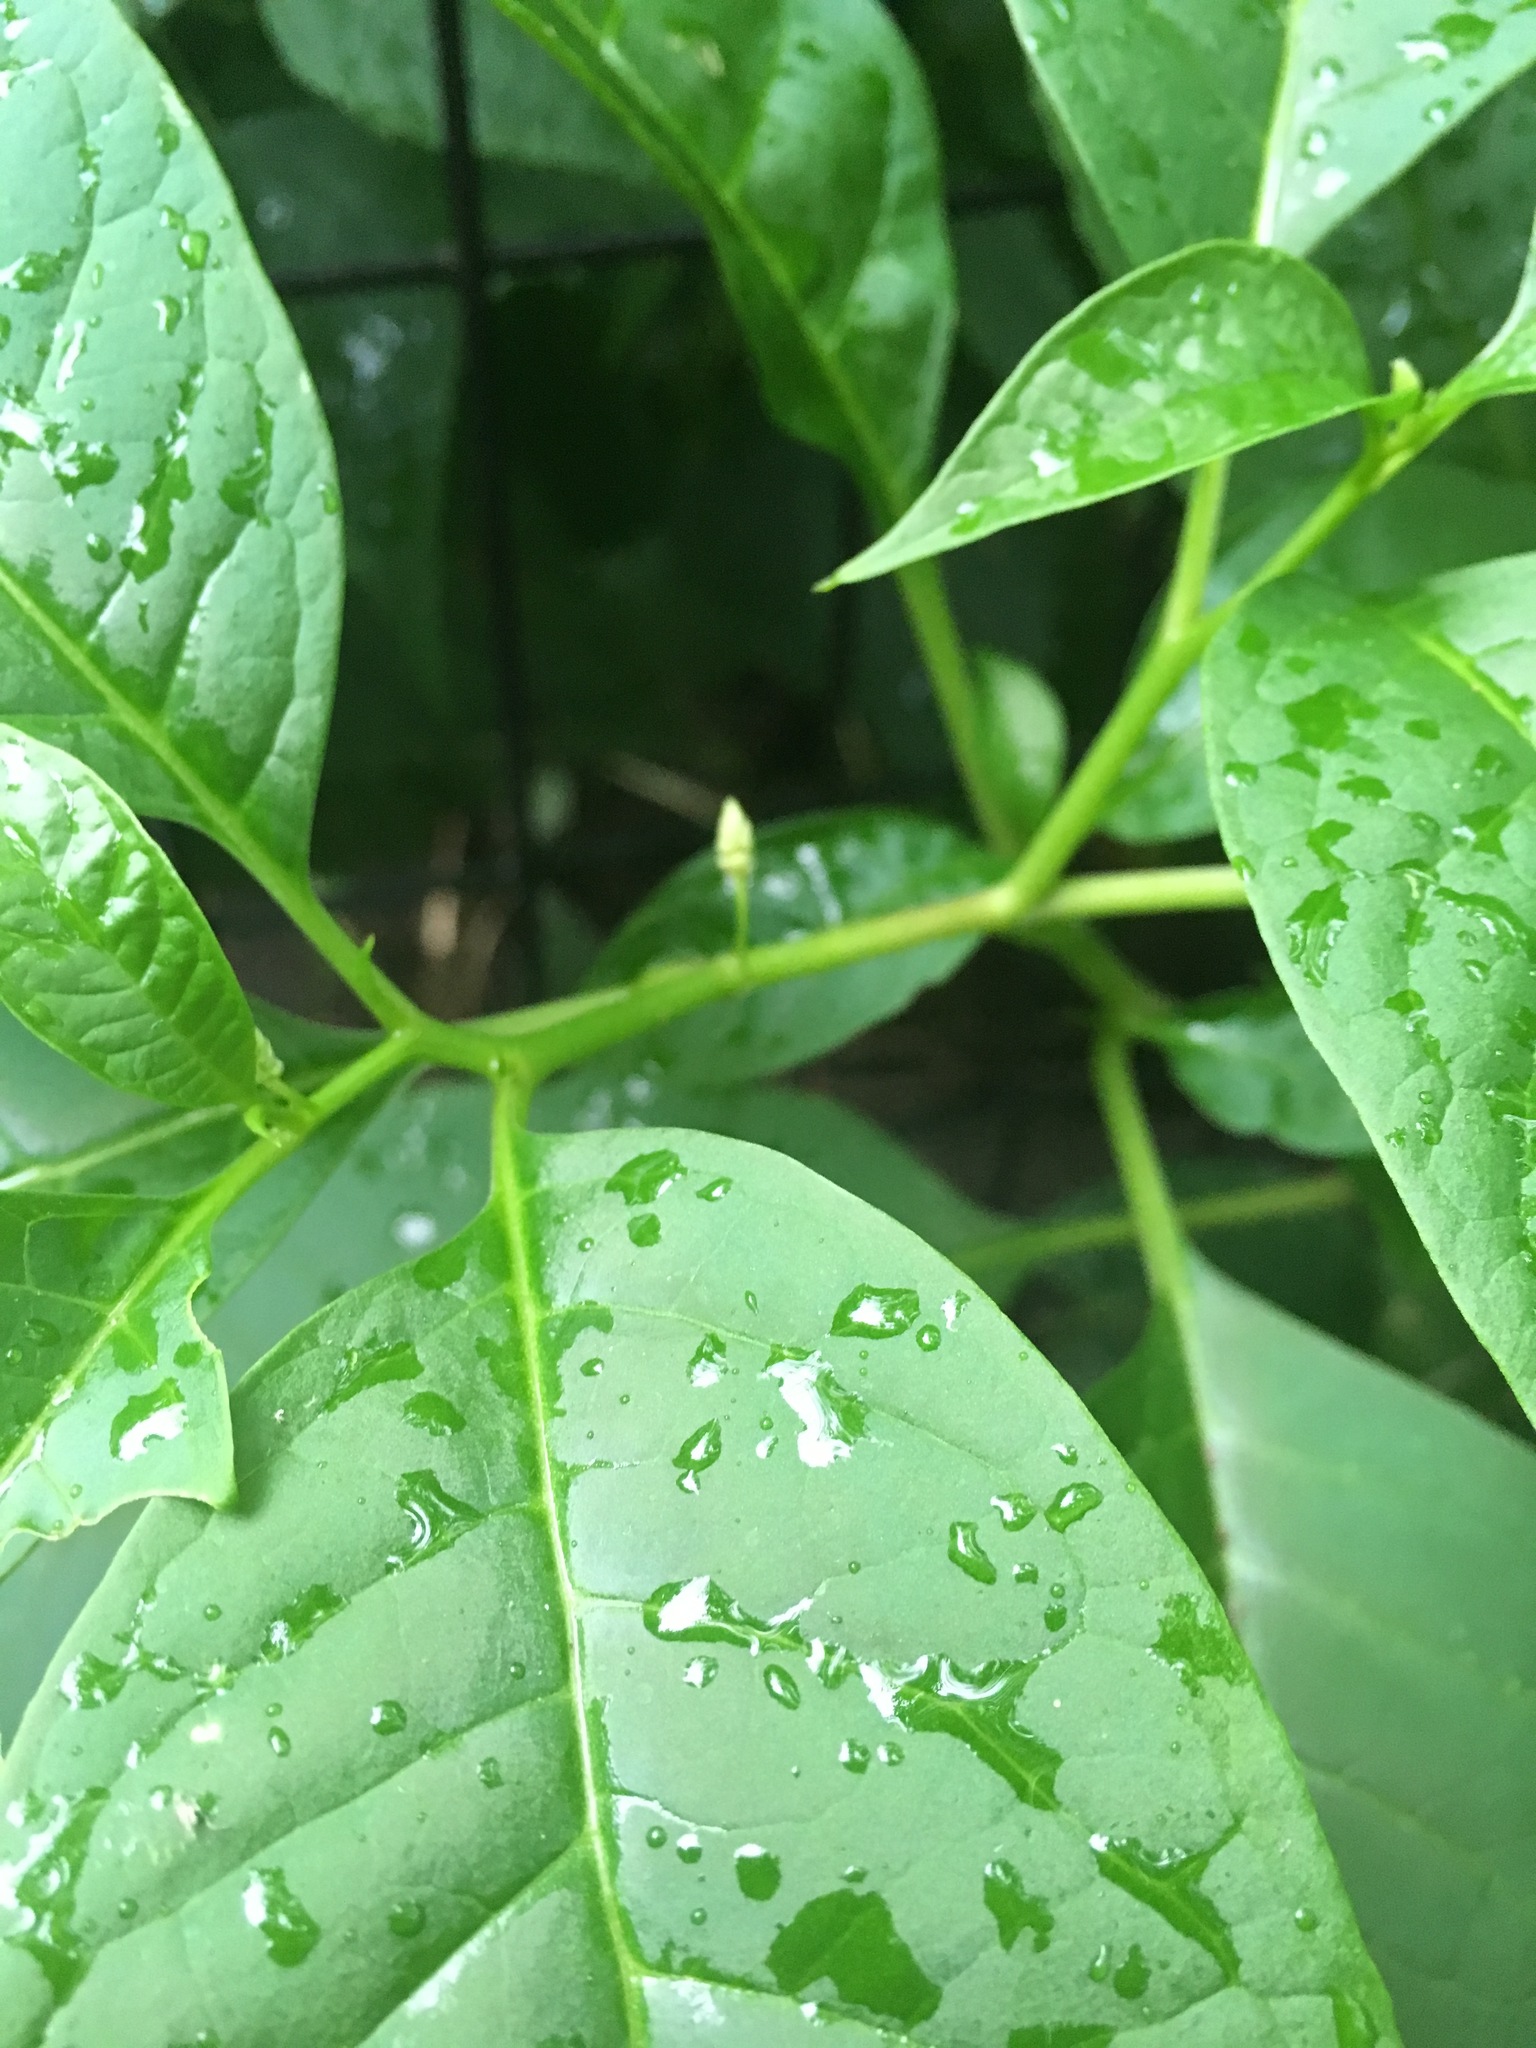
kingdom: Plantae
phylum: Tracheophyta
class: Magnoliopsida
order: Caryophyllales
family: Phytolaccaceae
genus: Phytolacca
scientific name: Phytolacca americana
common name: American pokeweed
